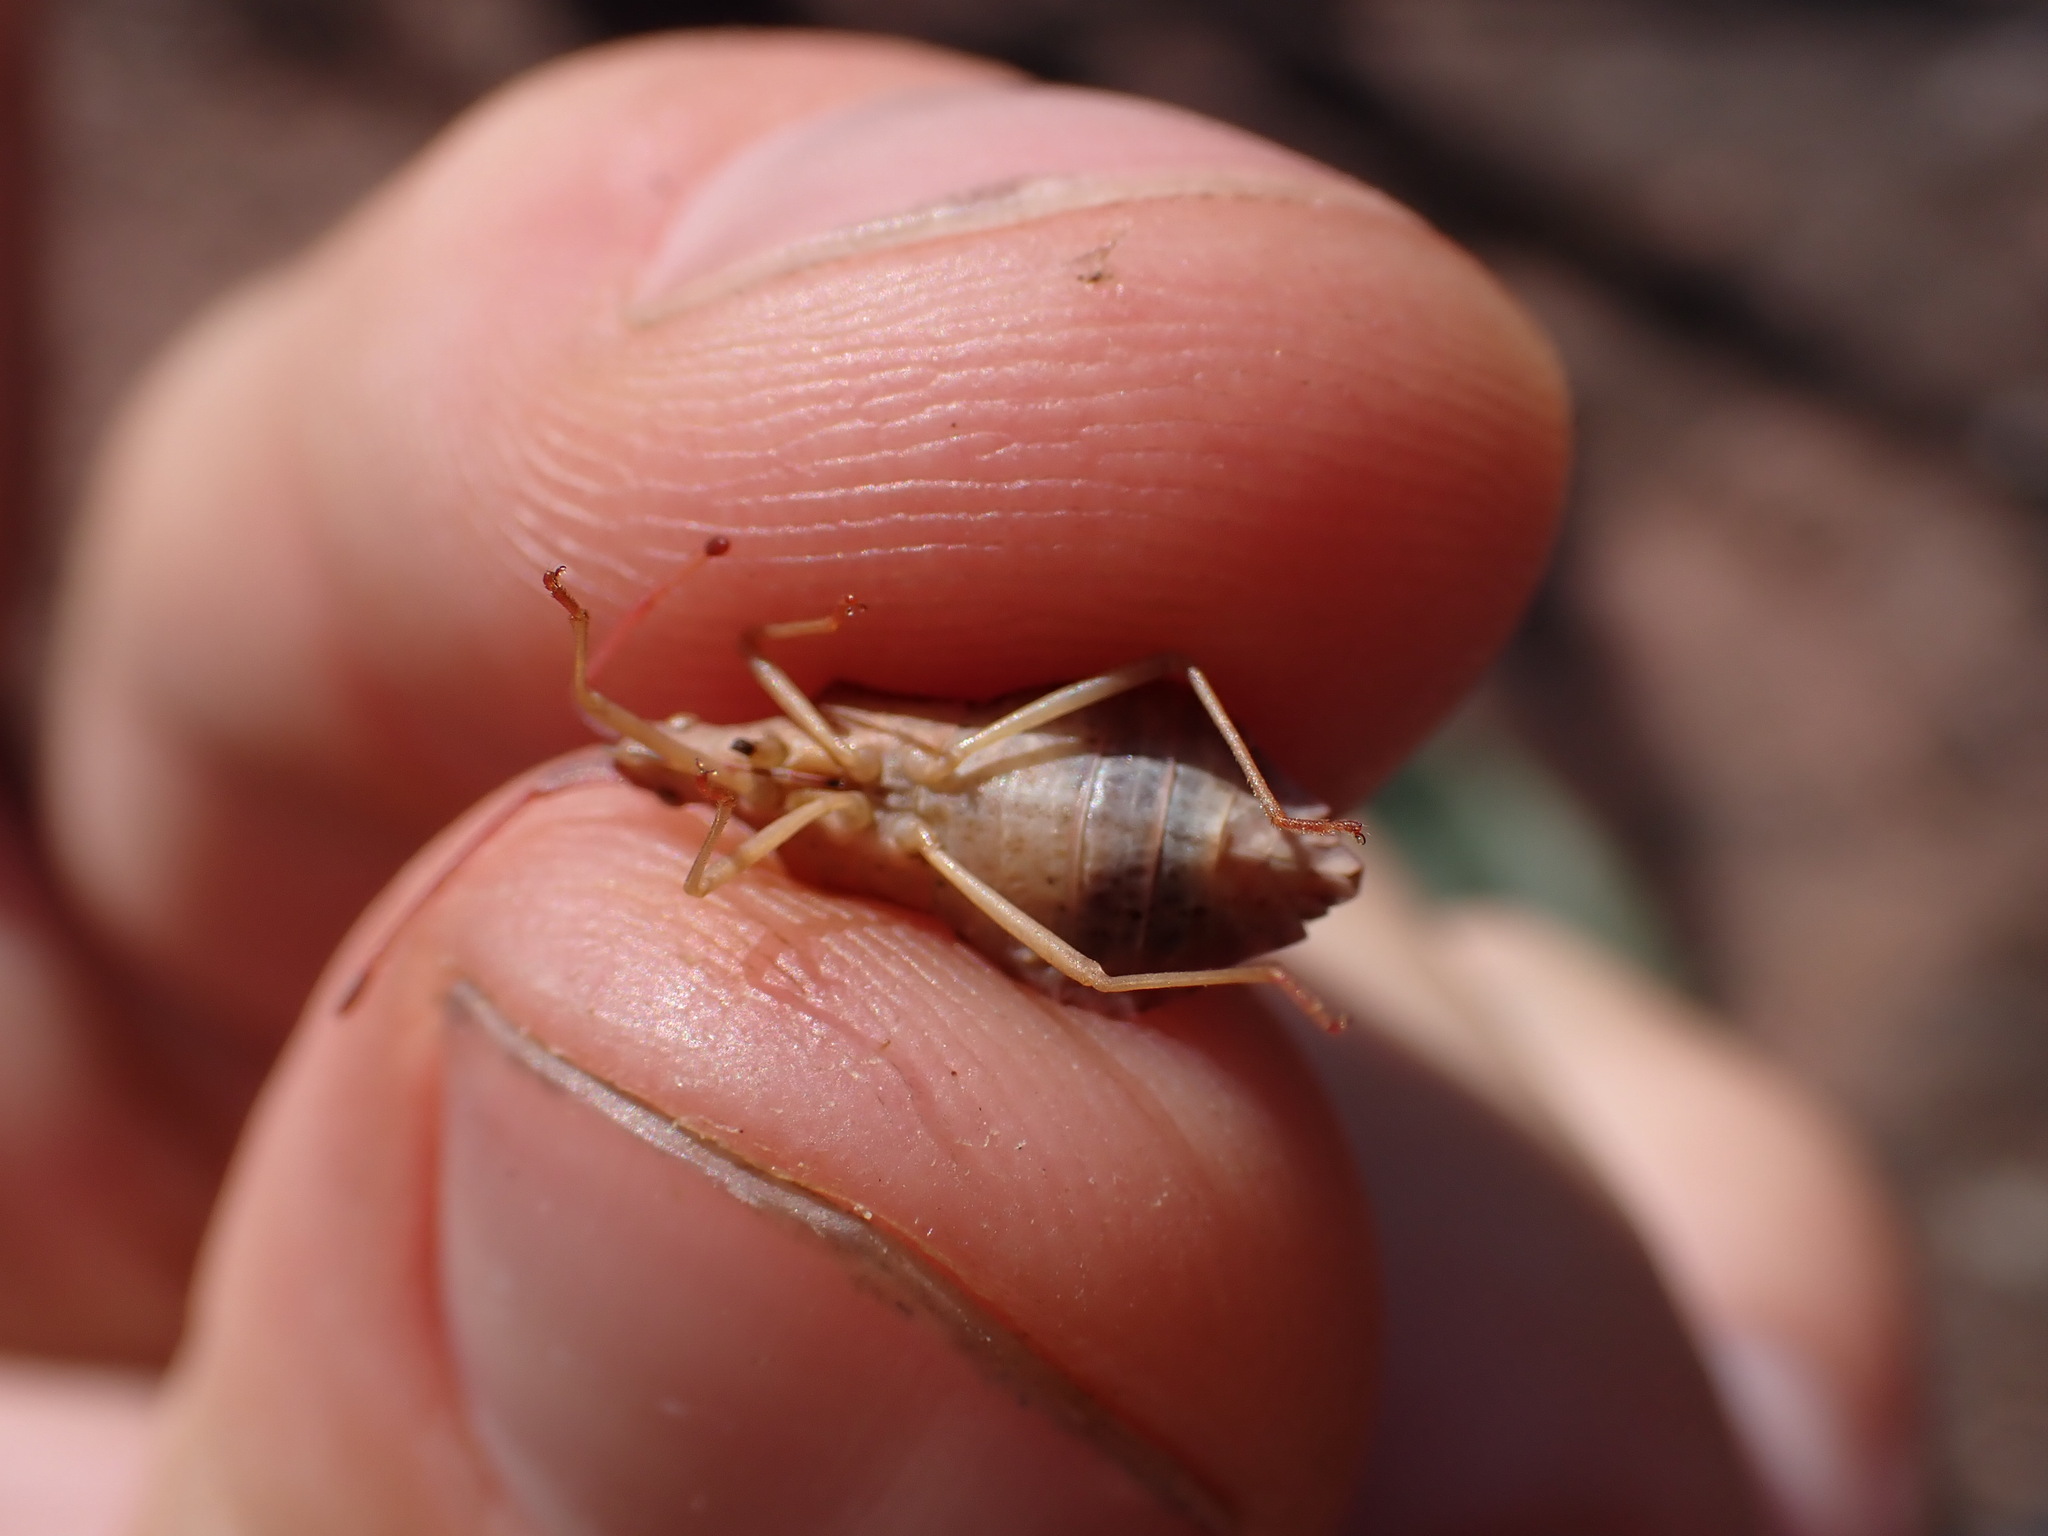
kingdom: Animalia
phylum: Arthropoda
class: Insecta
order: Hemiptera
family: Coreidae
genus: Haploprocta
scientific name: Haploprocta sulcicornis
